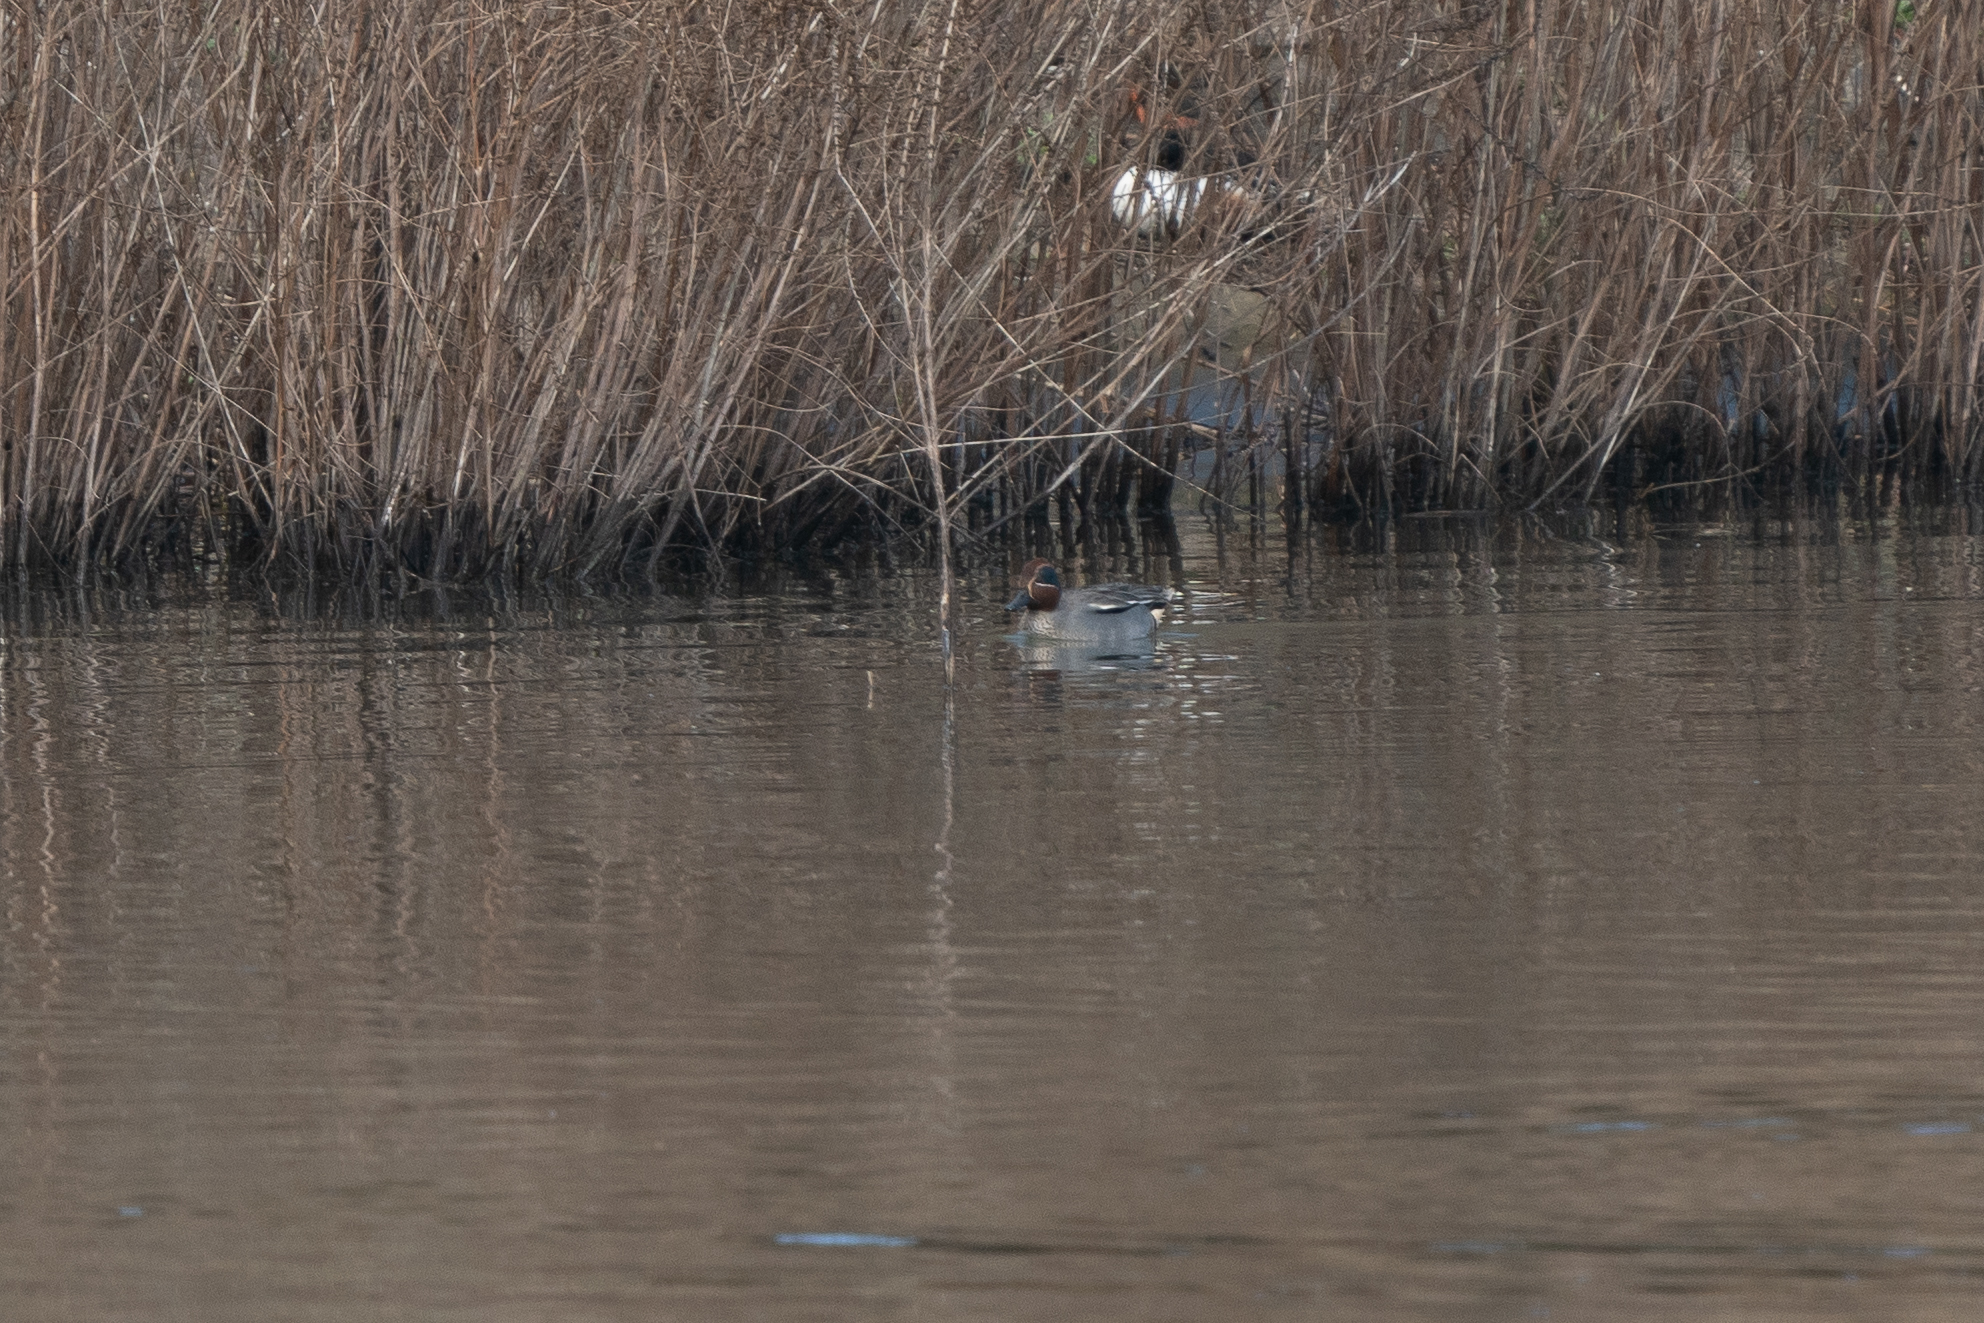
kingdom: Animalia
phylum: Chordata
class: Aves
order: Anseriformes
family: Anatidae
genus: Anas
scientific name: Anas crecca
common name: Eurasian teal
